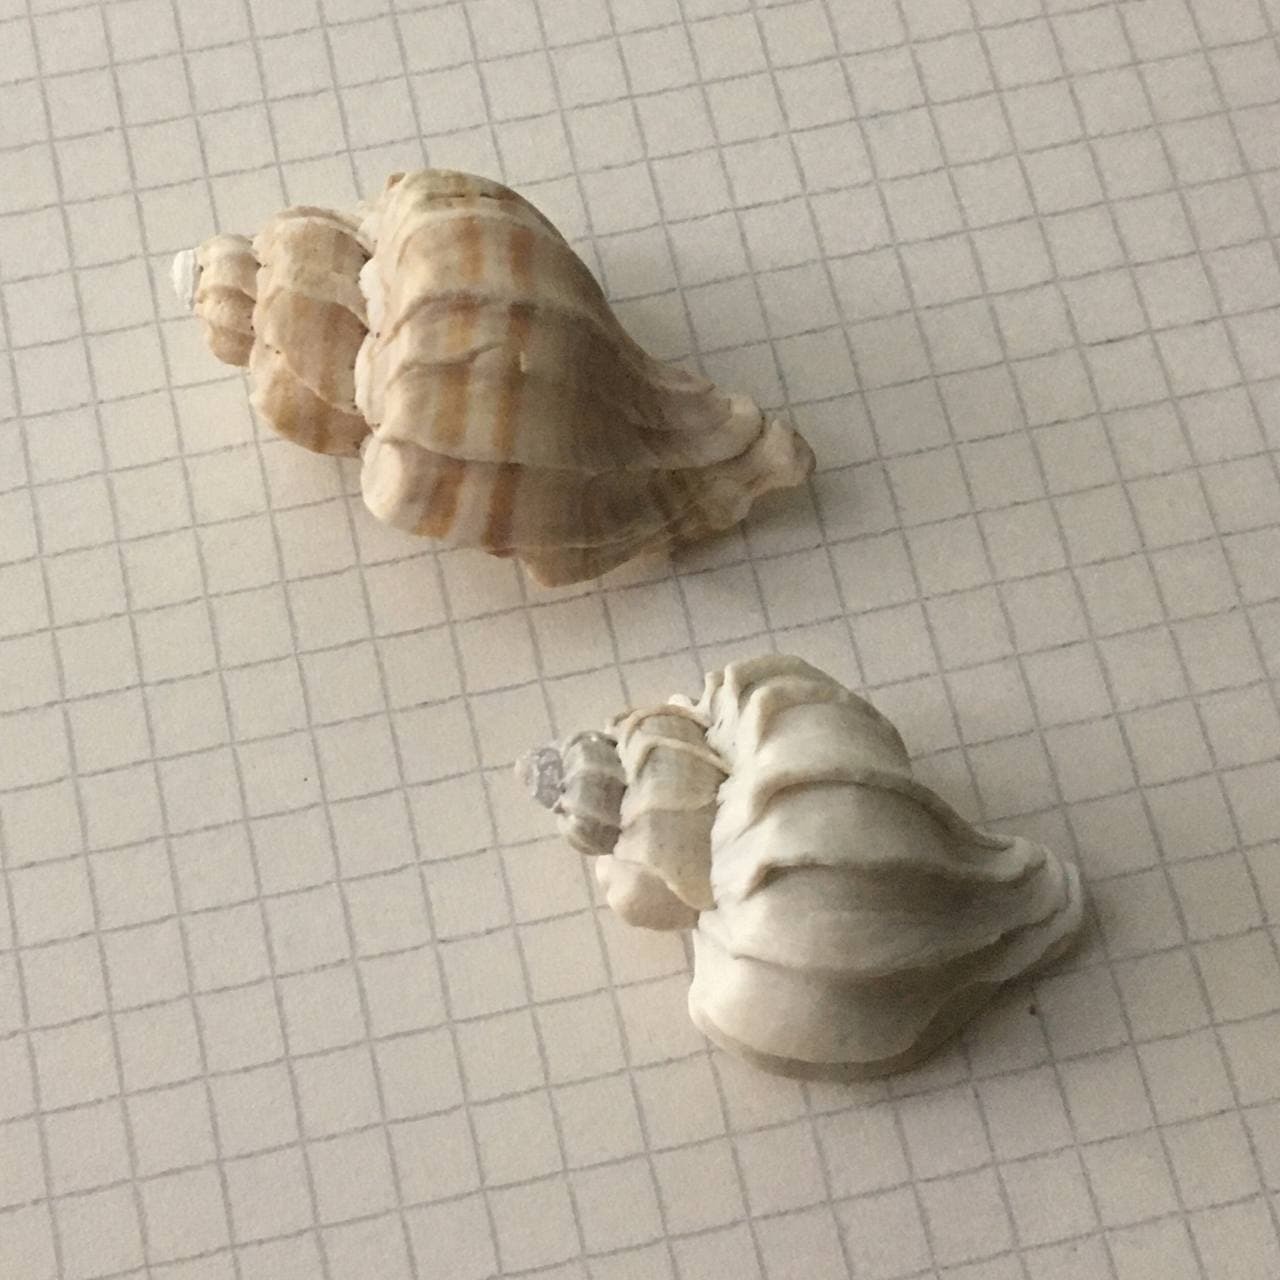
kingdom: Animalia
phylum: Mollusca
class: Gastropoda
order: Neogastropoda
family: Muricidae
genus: Trophon
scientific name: Trophon patagonicus
